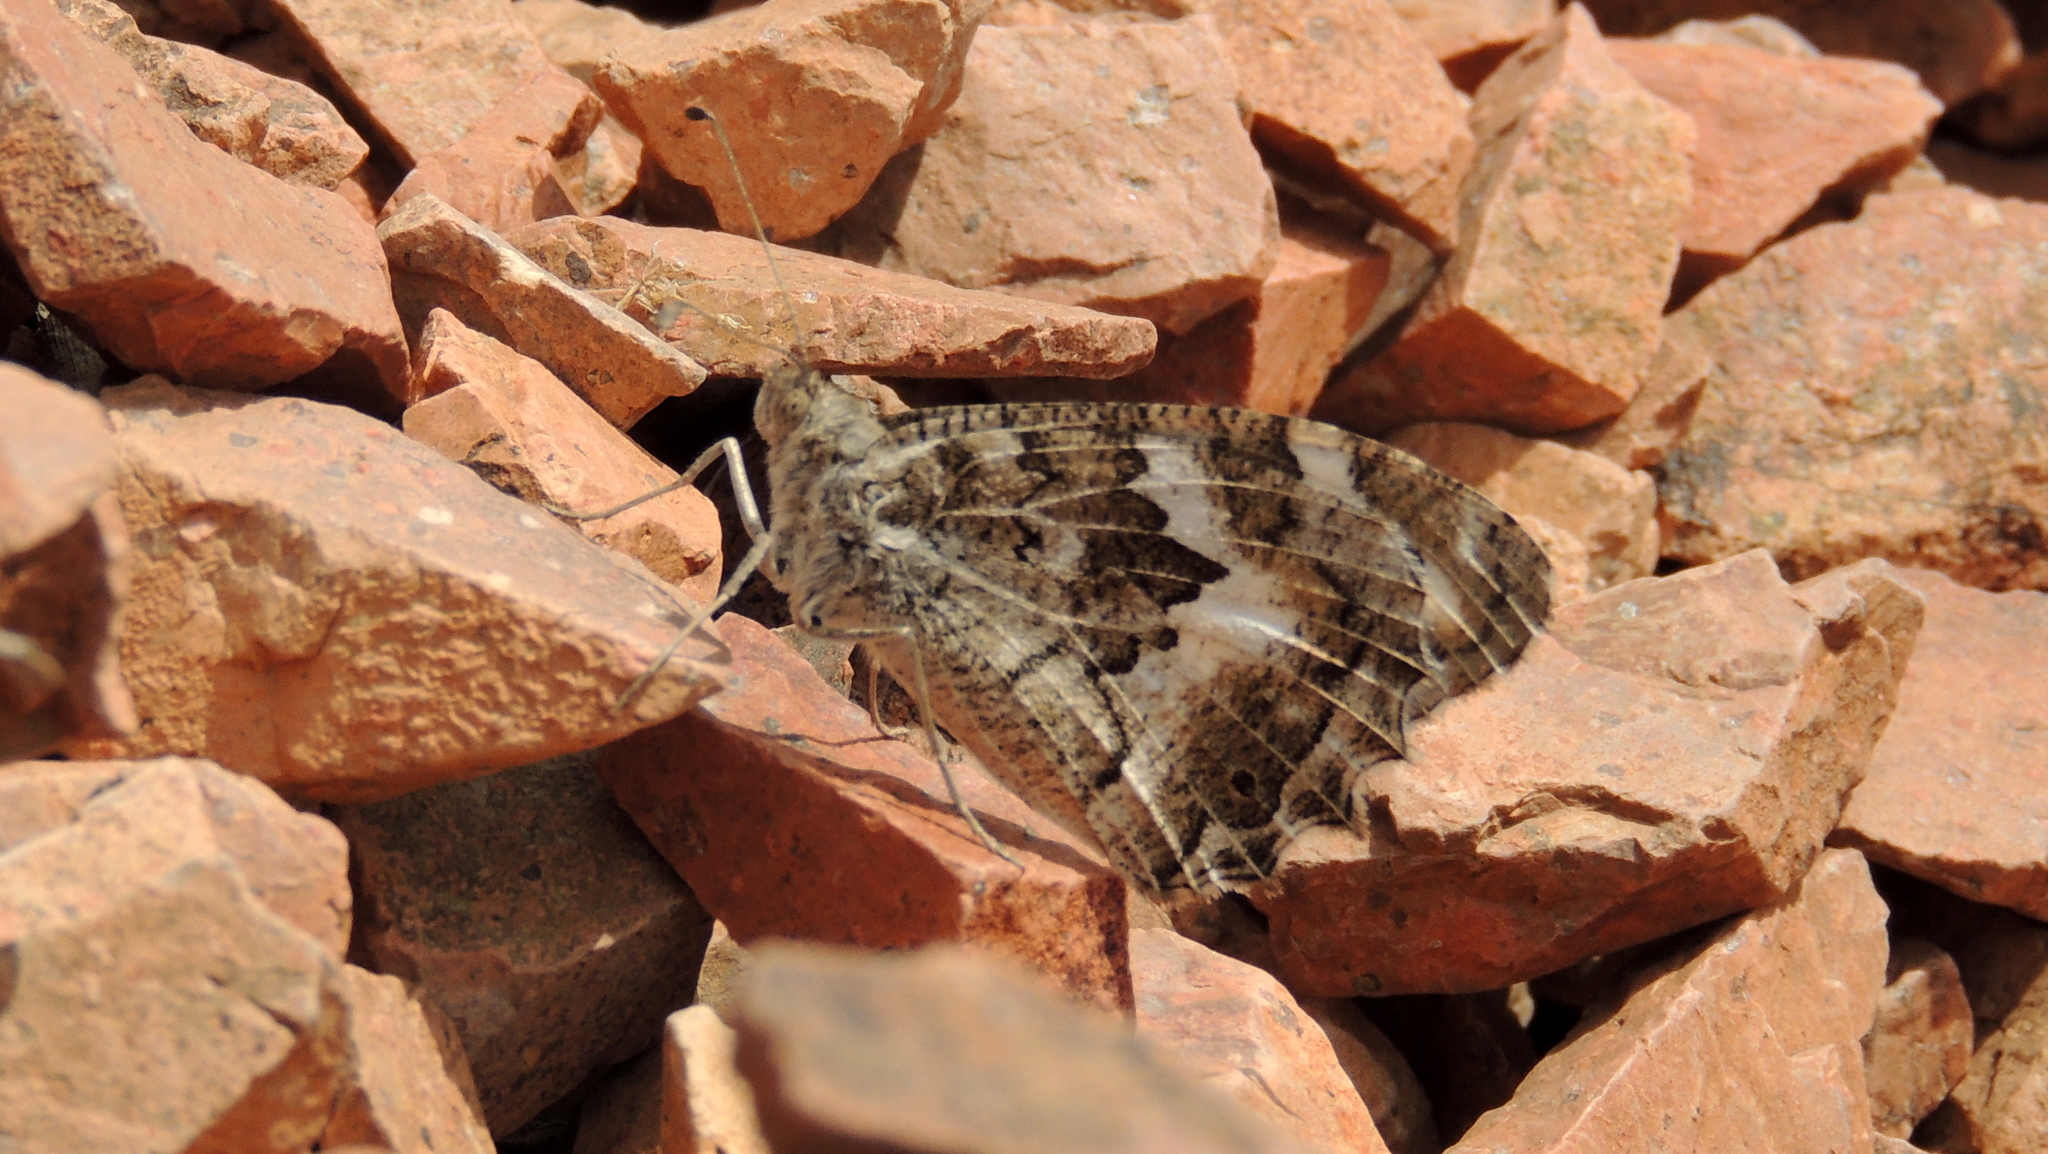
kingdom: Animalia
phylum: Arthropoda
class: Insecta
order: Lepidoptera
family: Nymphalidae
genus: Satyrus
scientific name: Satyrus Chazara enervata
